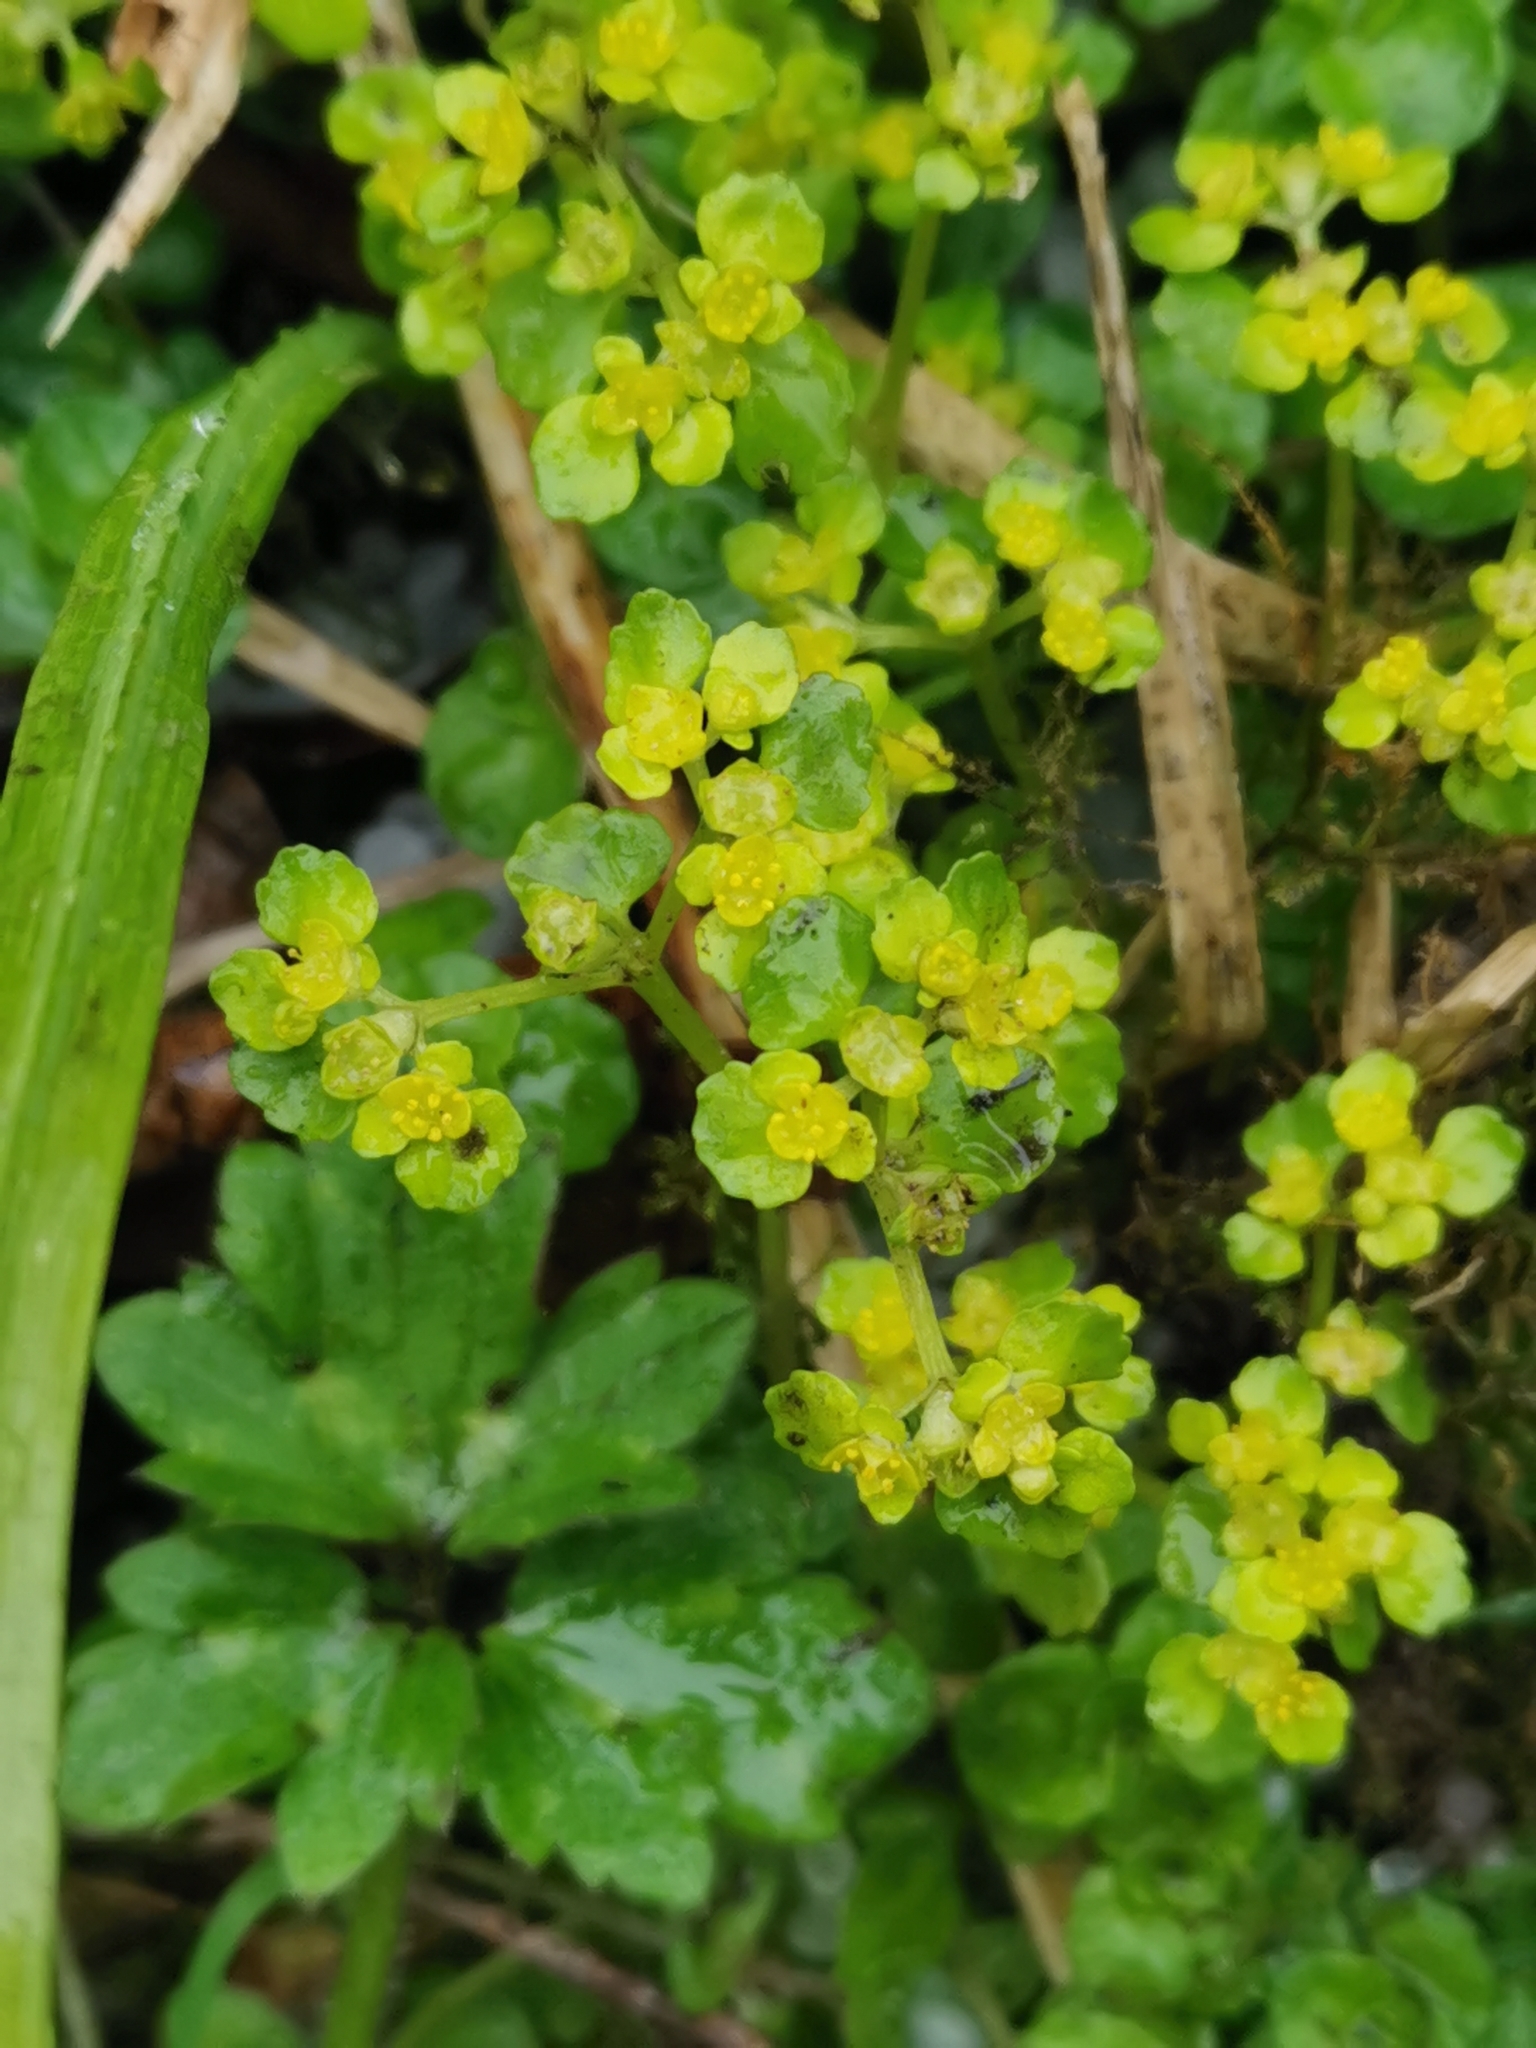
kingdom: Plantae
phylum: Tracheophyta
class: Magnoliopsida
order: Saxifragales
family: Saxifragaceae
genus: Chrysosplenium
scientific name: Chrysosplenium oppositifolium
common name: Opposite-leaved golden-saxifrage
